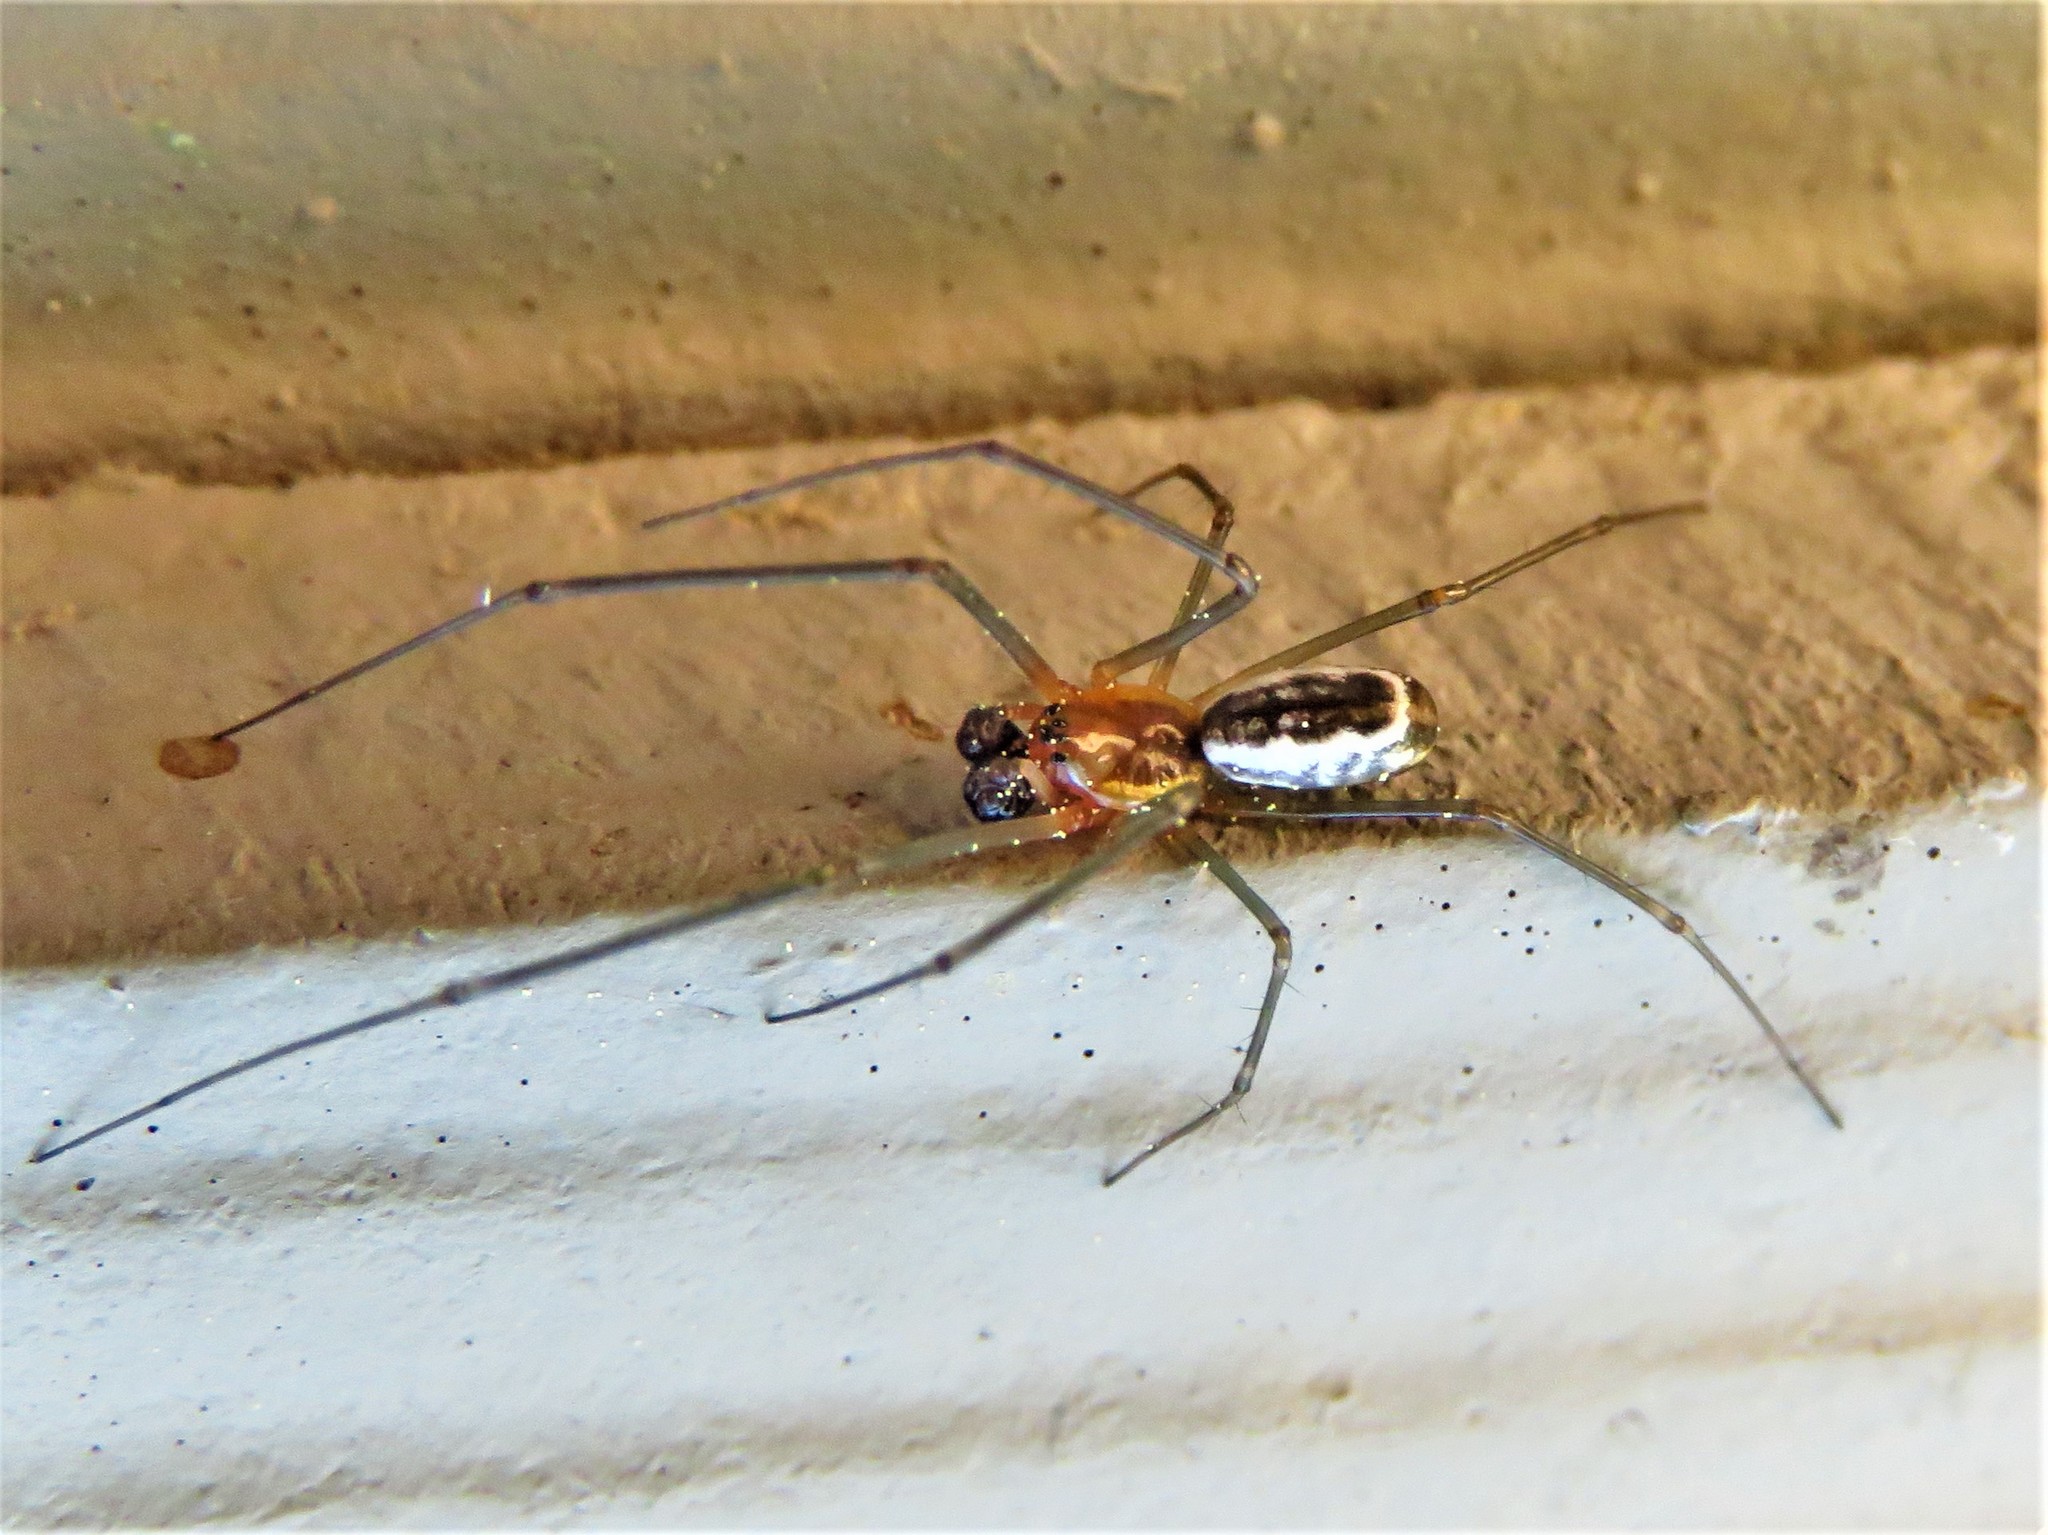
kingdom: Animalia
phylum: Arthropoda
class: Arachnida
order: Araneae
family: Linyphiidae
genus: Neriene
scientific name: Neriene radiata
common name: Filmy dome spider
